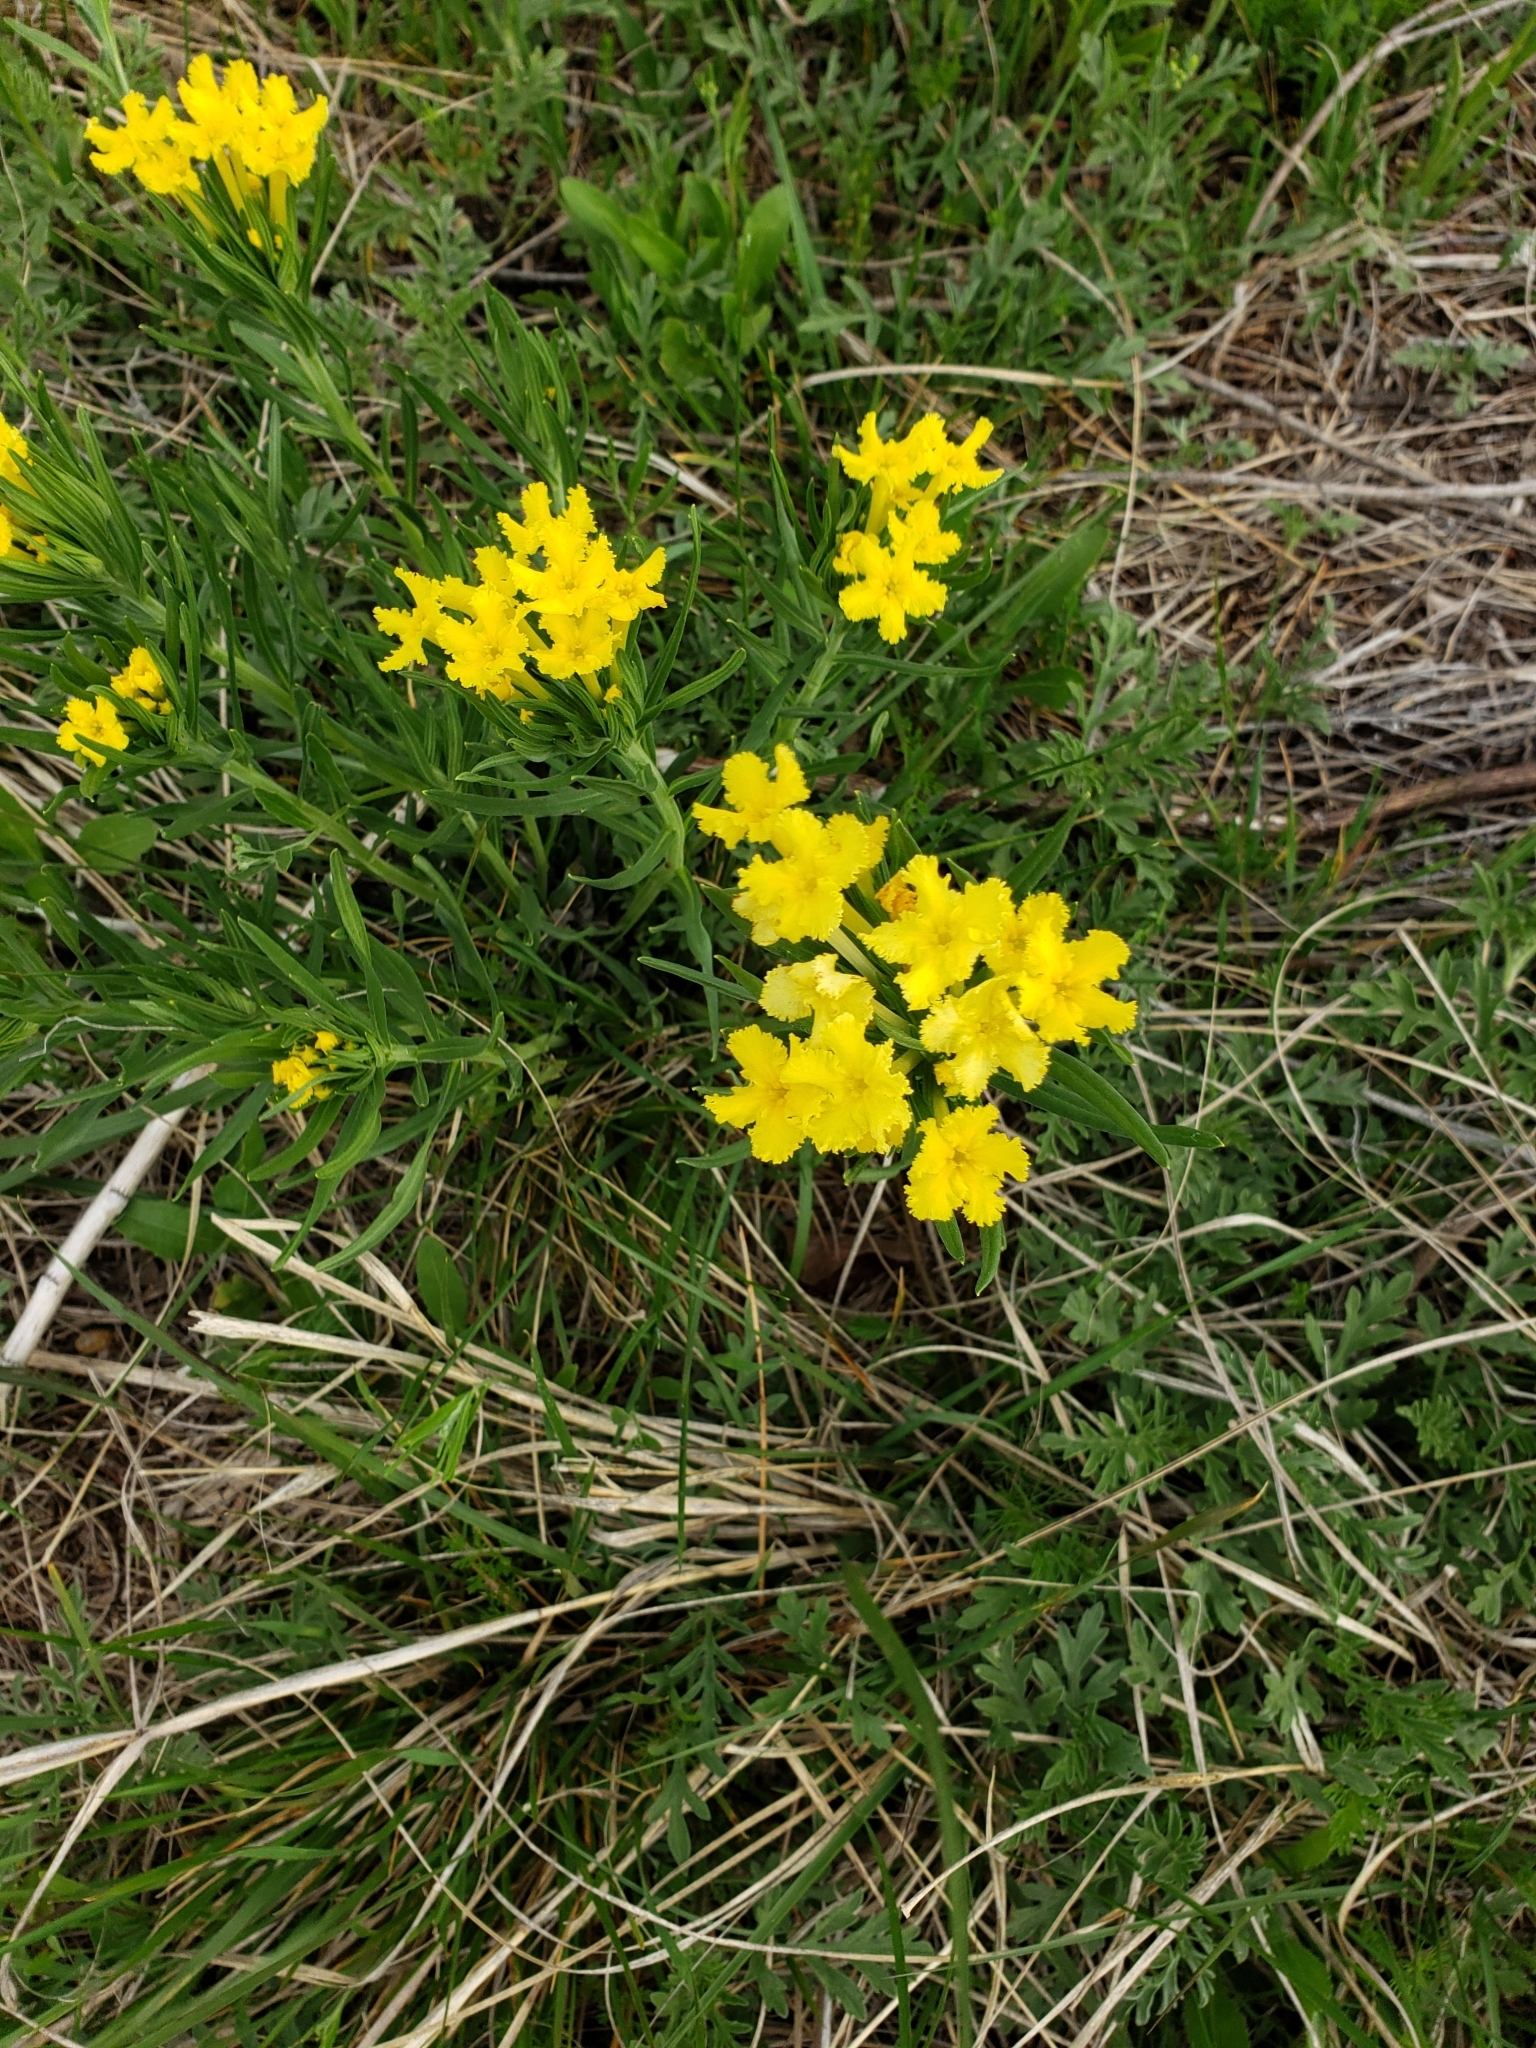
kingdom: Plantae
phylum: Tracheophyta
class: Magnoliopsida
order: Boraginales
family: Boraginaceae
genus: Lithospermum
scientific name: Lithospermum incisum
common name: Fringed gromwell
